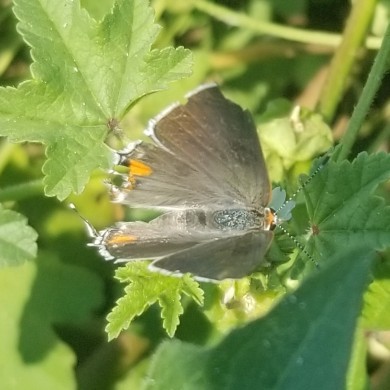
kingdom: Animalia
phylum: Arthropoda
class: Insecta
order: Lepidoptera
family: Lycaenidae
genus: Strymon
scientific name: Strymon melinus
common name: Gray hairstreak
